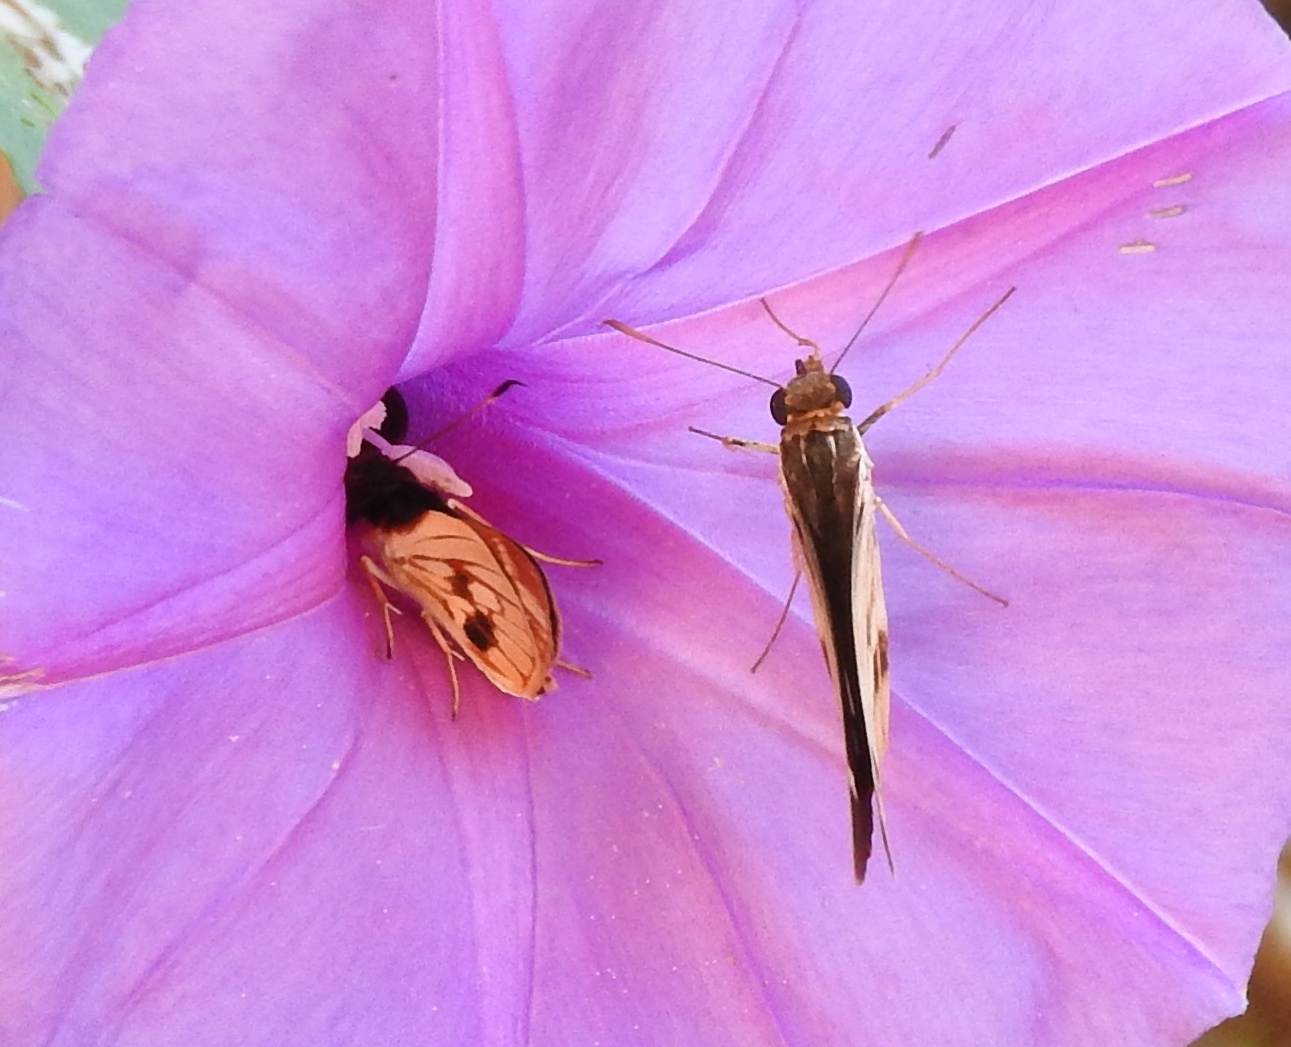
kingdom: Animalia
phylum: Arthropoda
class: Insecta
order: Lepidoptera
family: Hesperiidae
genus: Troyus
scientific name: Troyus fantasos
